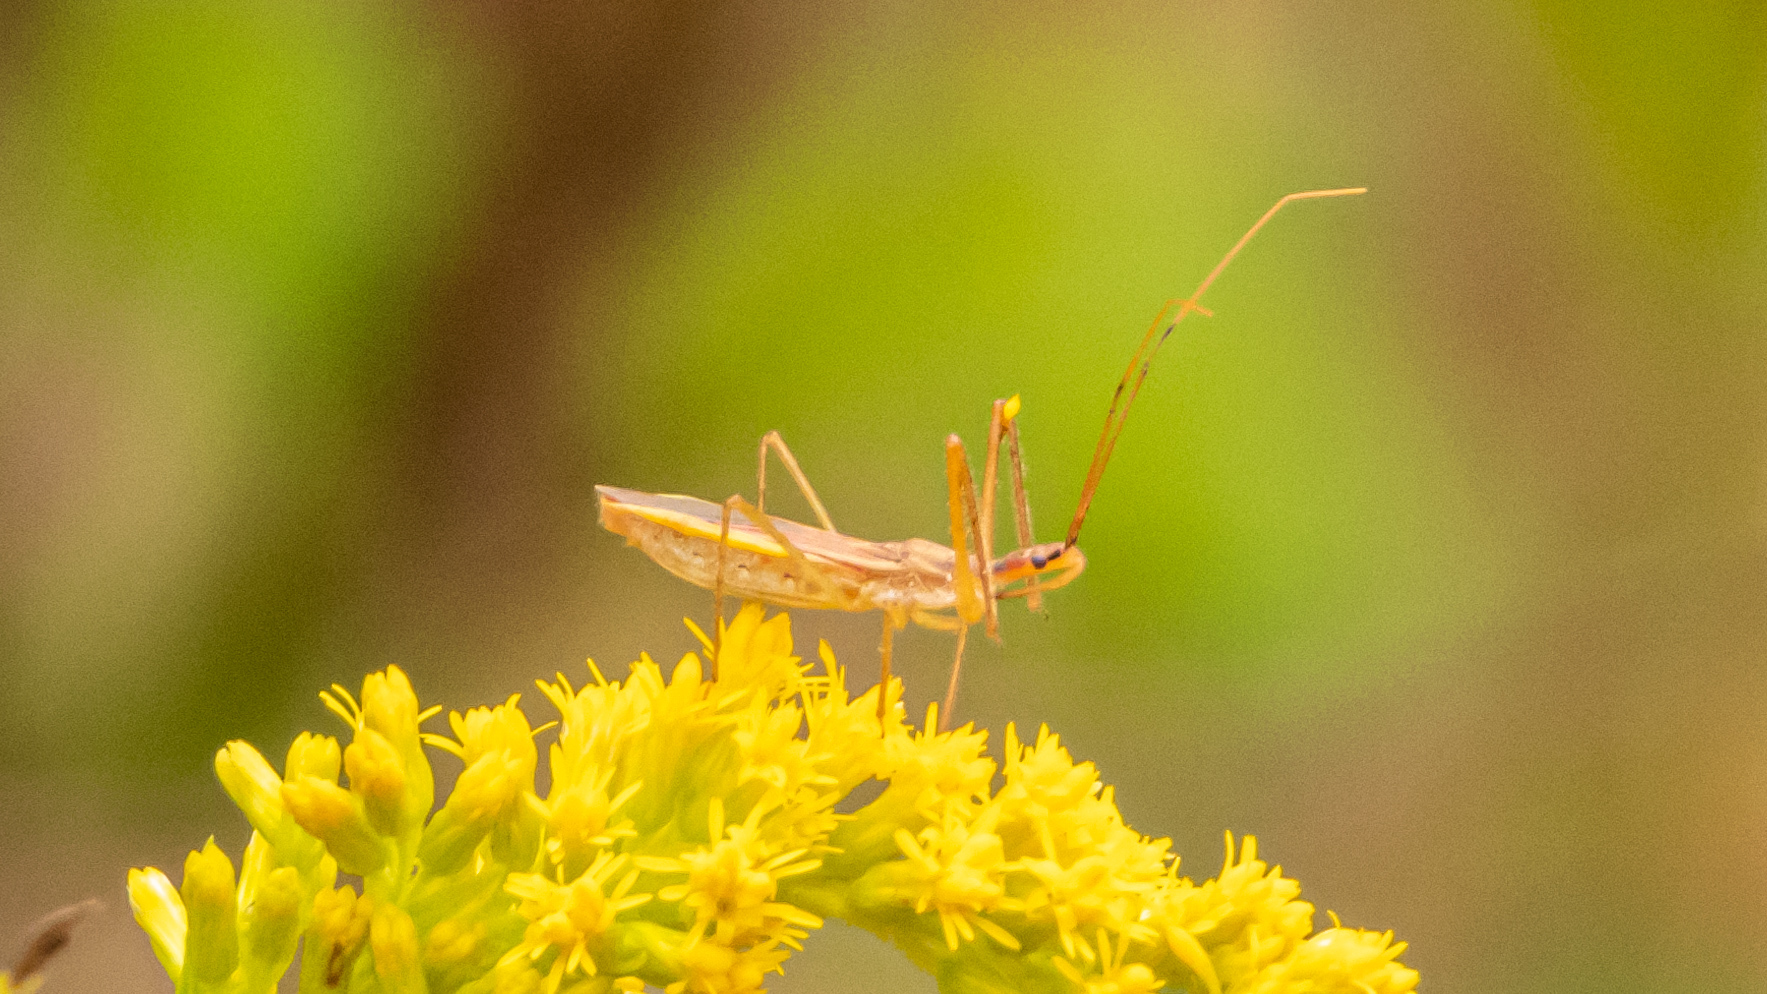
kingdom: Animalia
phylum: Arthropoda
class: Insecta
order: Hemiptera
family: Reduviidae
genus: Zelus
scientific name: Zelus cervicalis
